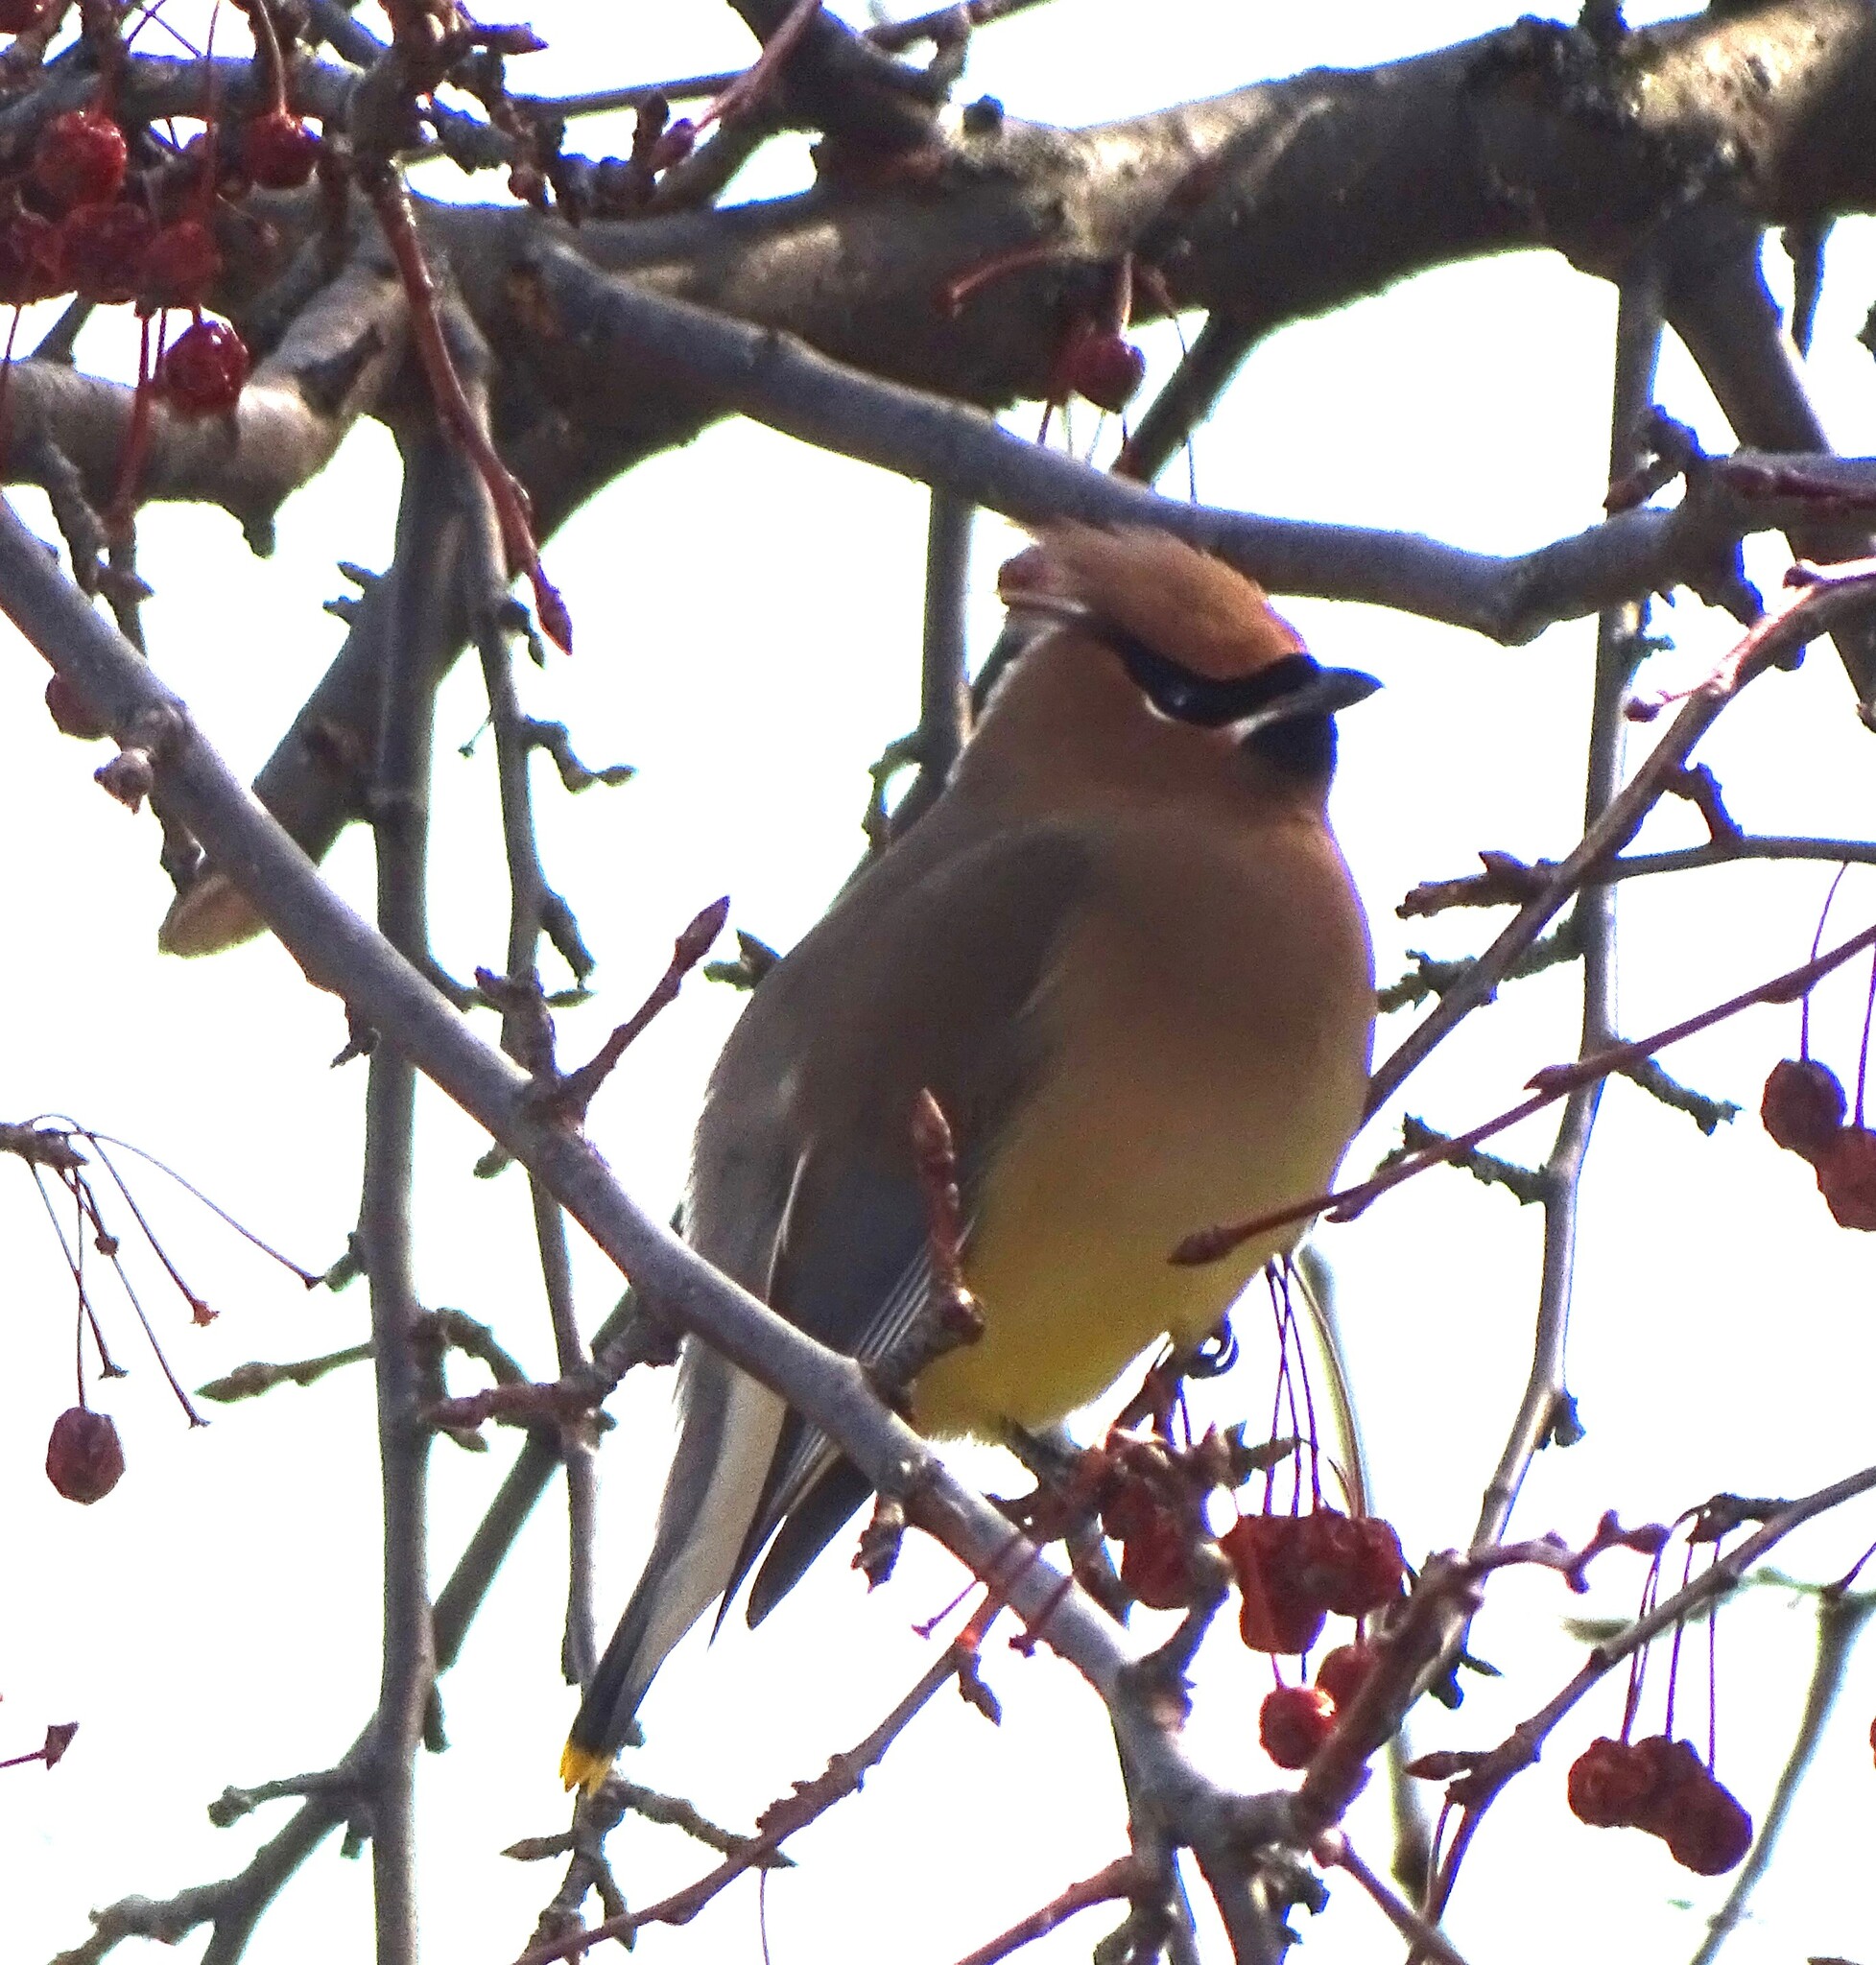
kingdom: Animalia
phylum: Chordata
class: Aves
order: Passeriformes
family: Bombycillidae
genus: Bombycilla
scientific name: Bombycilla cedrorum
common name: Cedar waxwing
